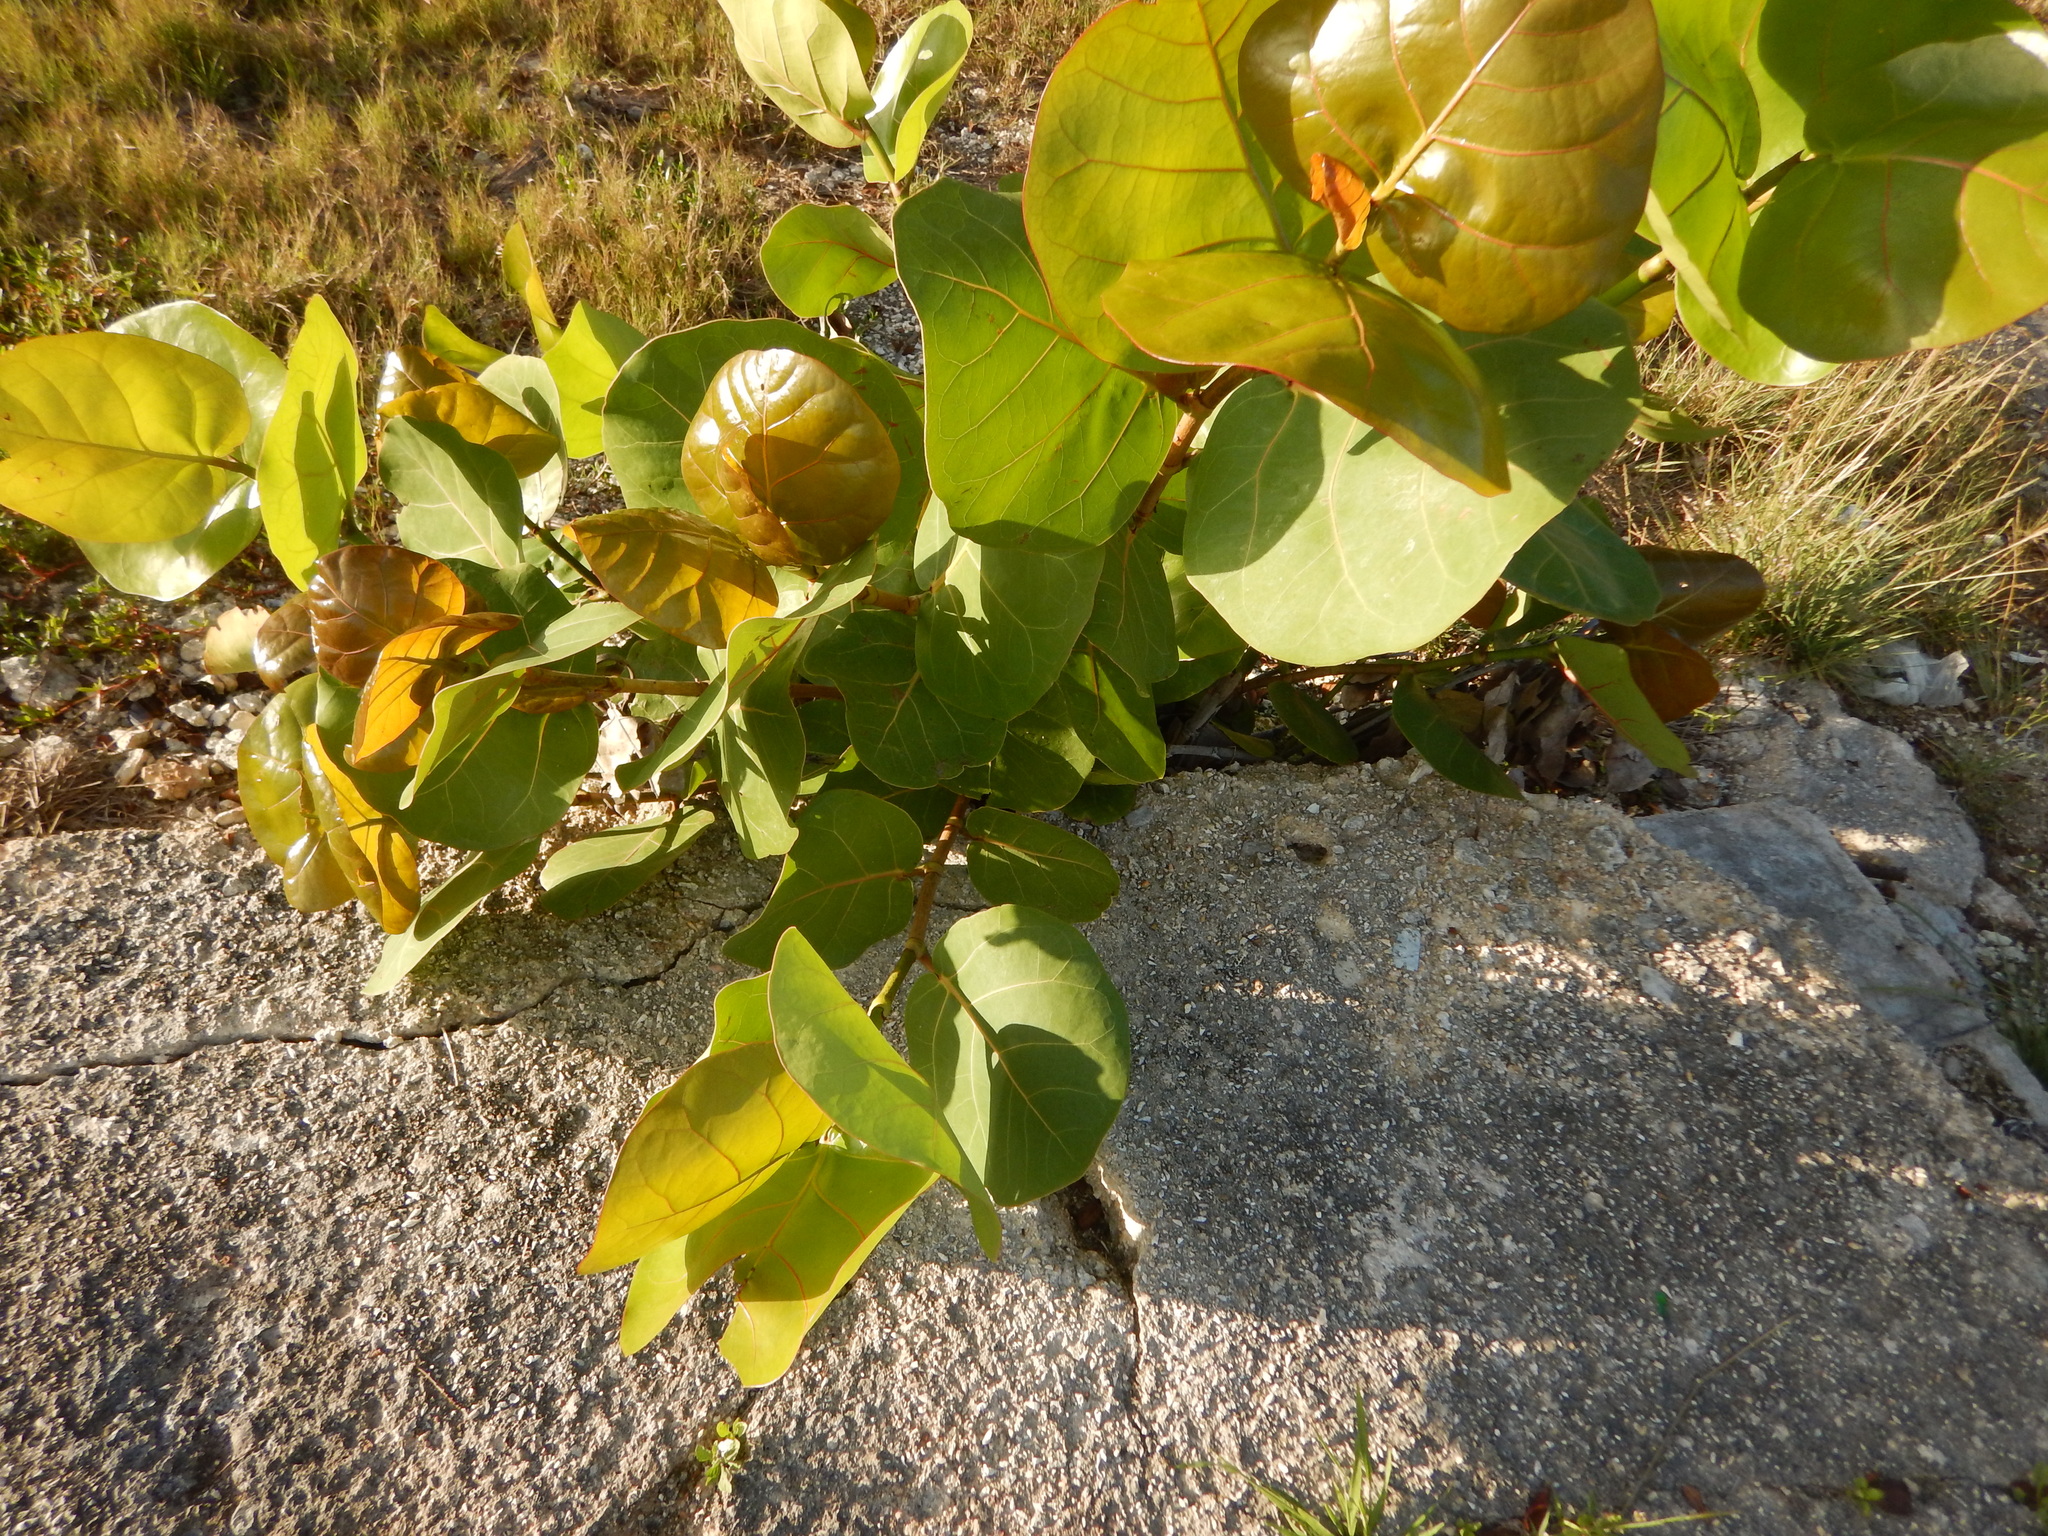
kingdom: Plantae
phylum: Tracheophyta
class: Magnoliopsida
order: Caryophyllales
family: Polygonaceae
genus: Coccoloba
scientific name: Coccoloba uvifera
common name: Seagrape
